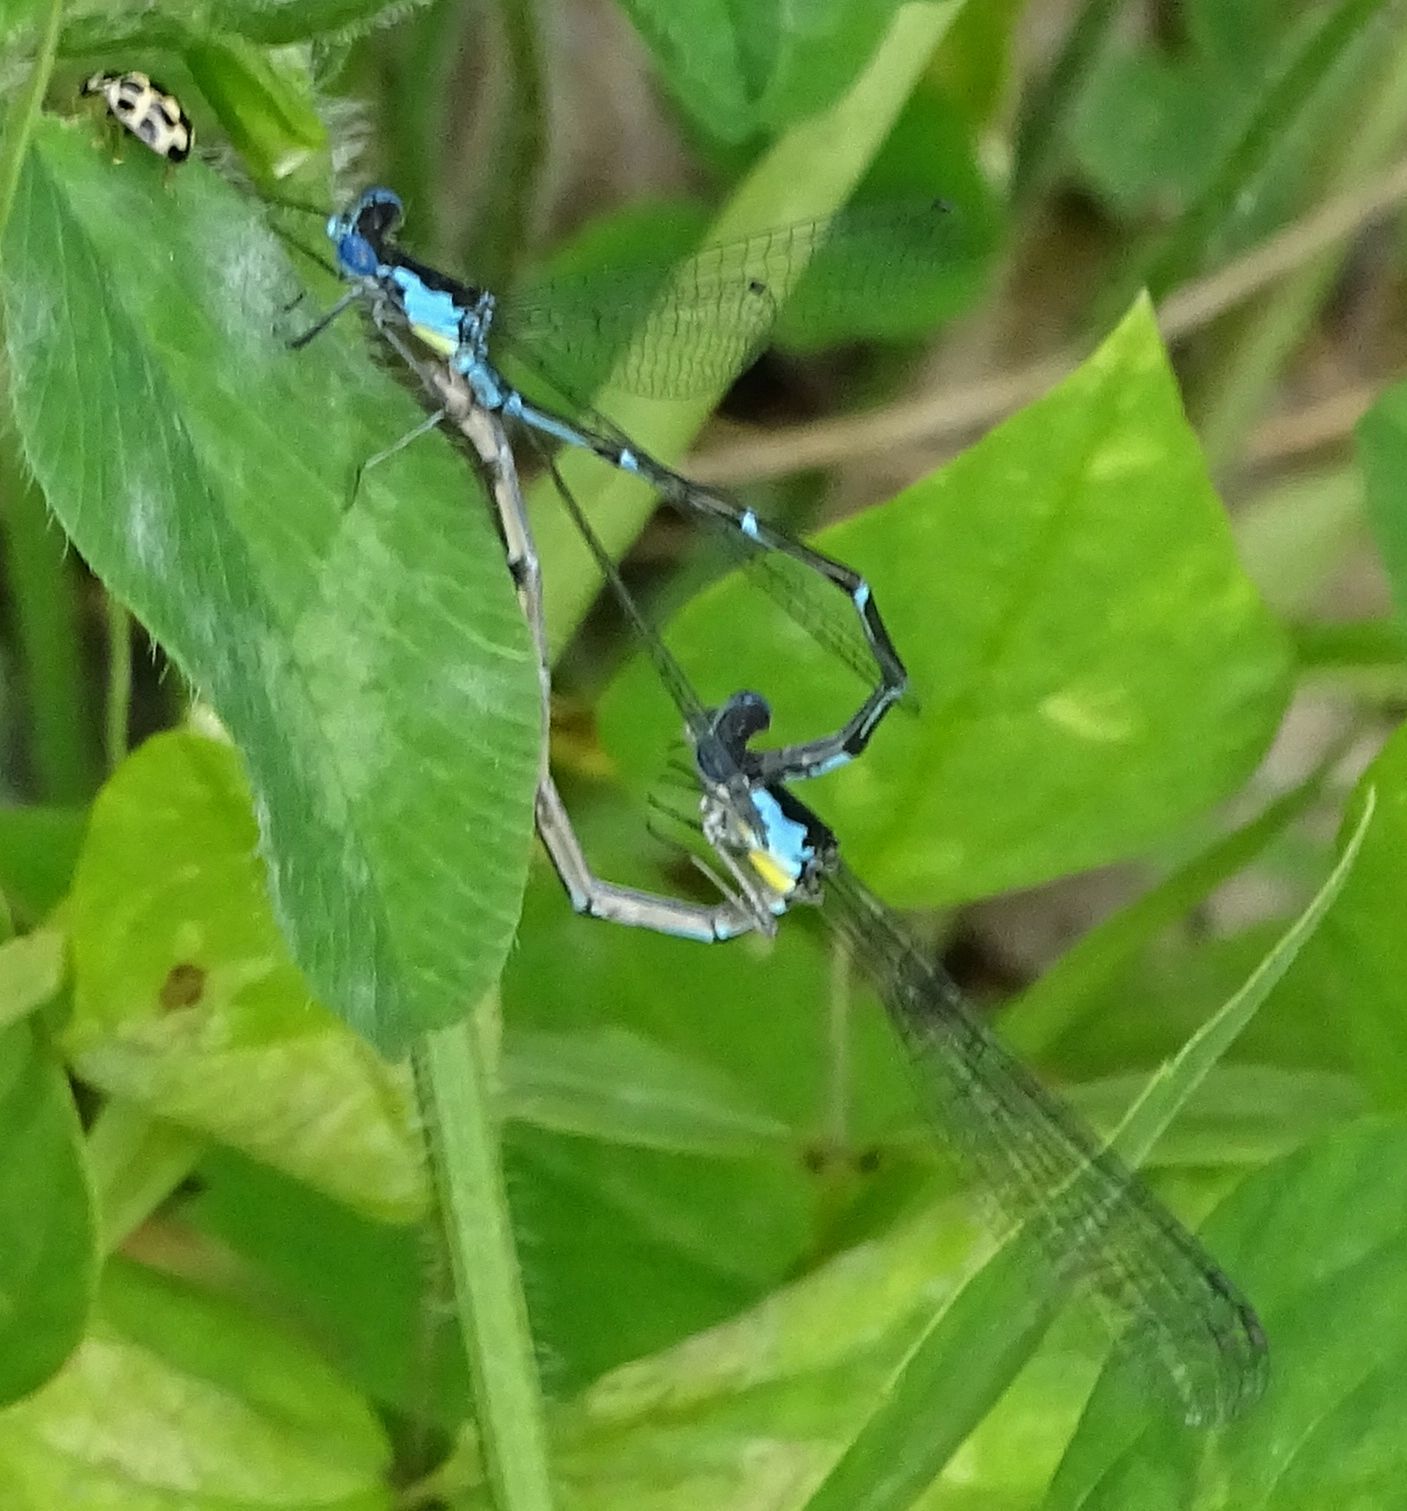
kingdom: Animalia
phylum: Arthropoda
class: Insecta
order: Odonata
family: Coenagrionidae
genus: Chromagrion
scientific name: Chromagrion conditum
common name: Aurora damsel
